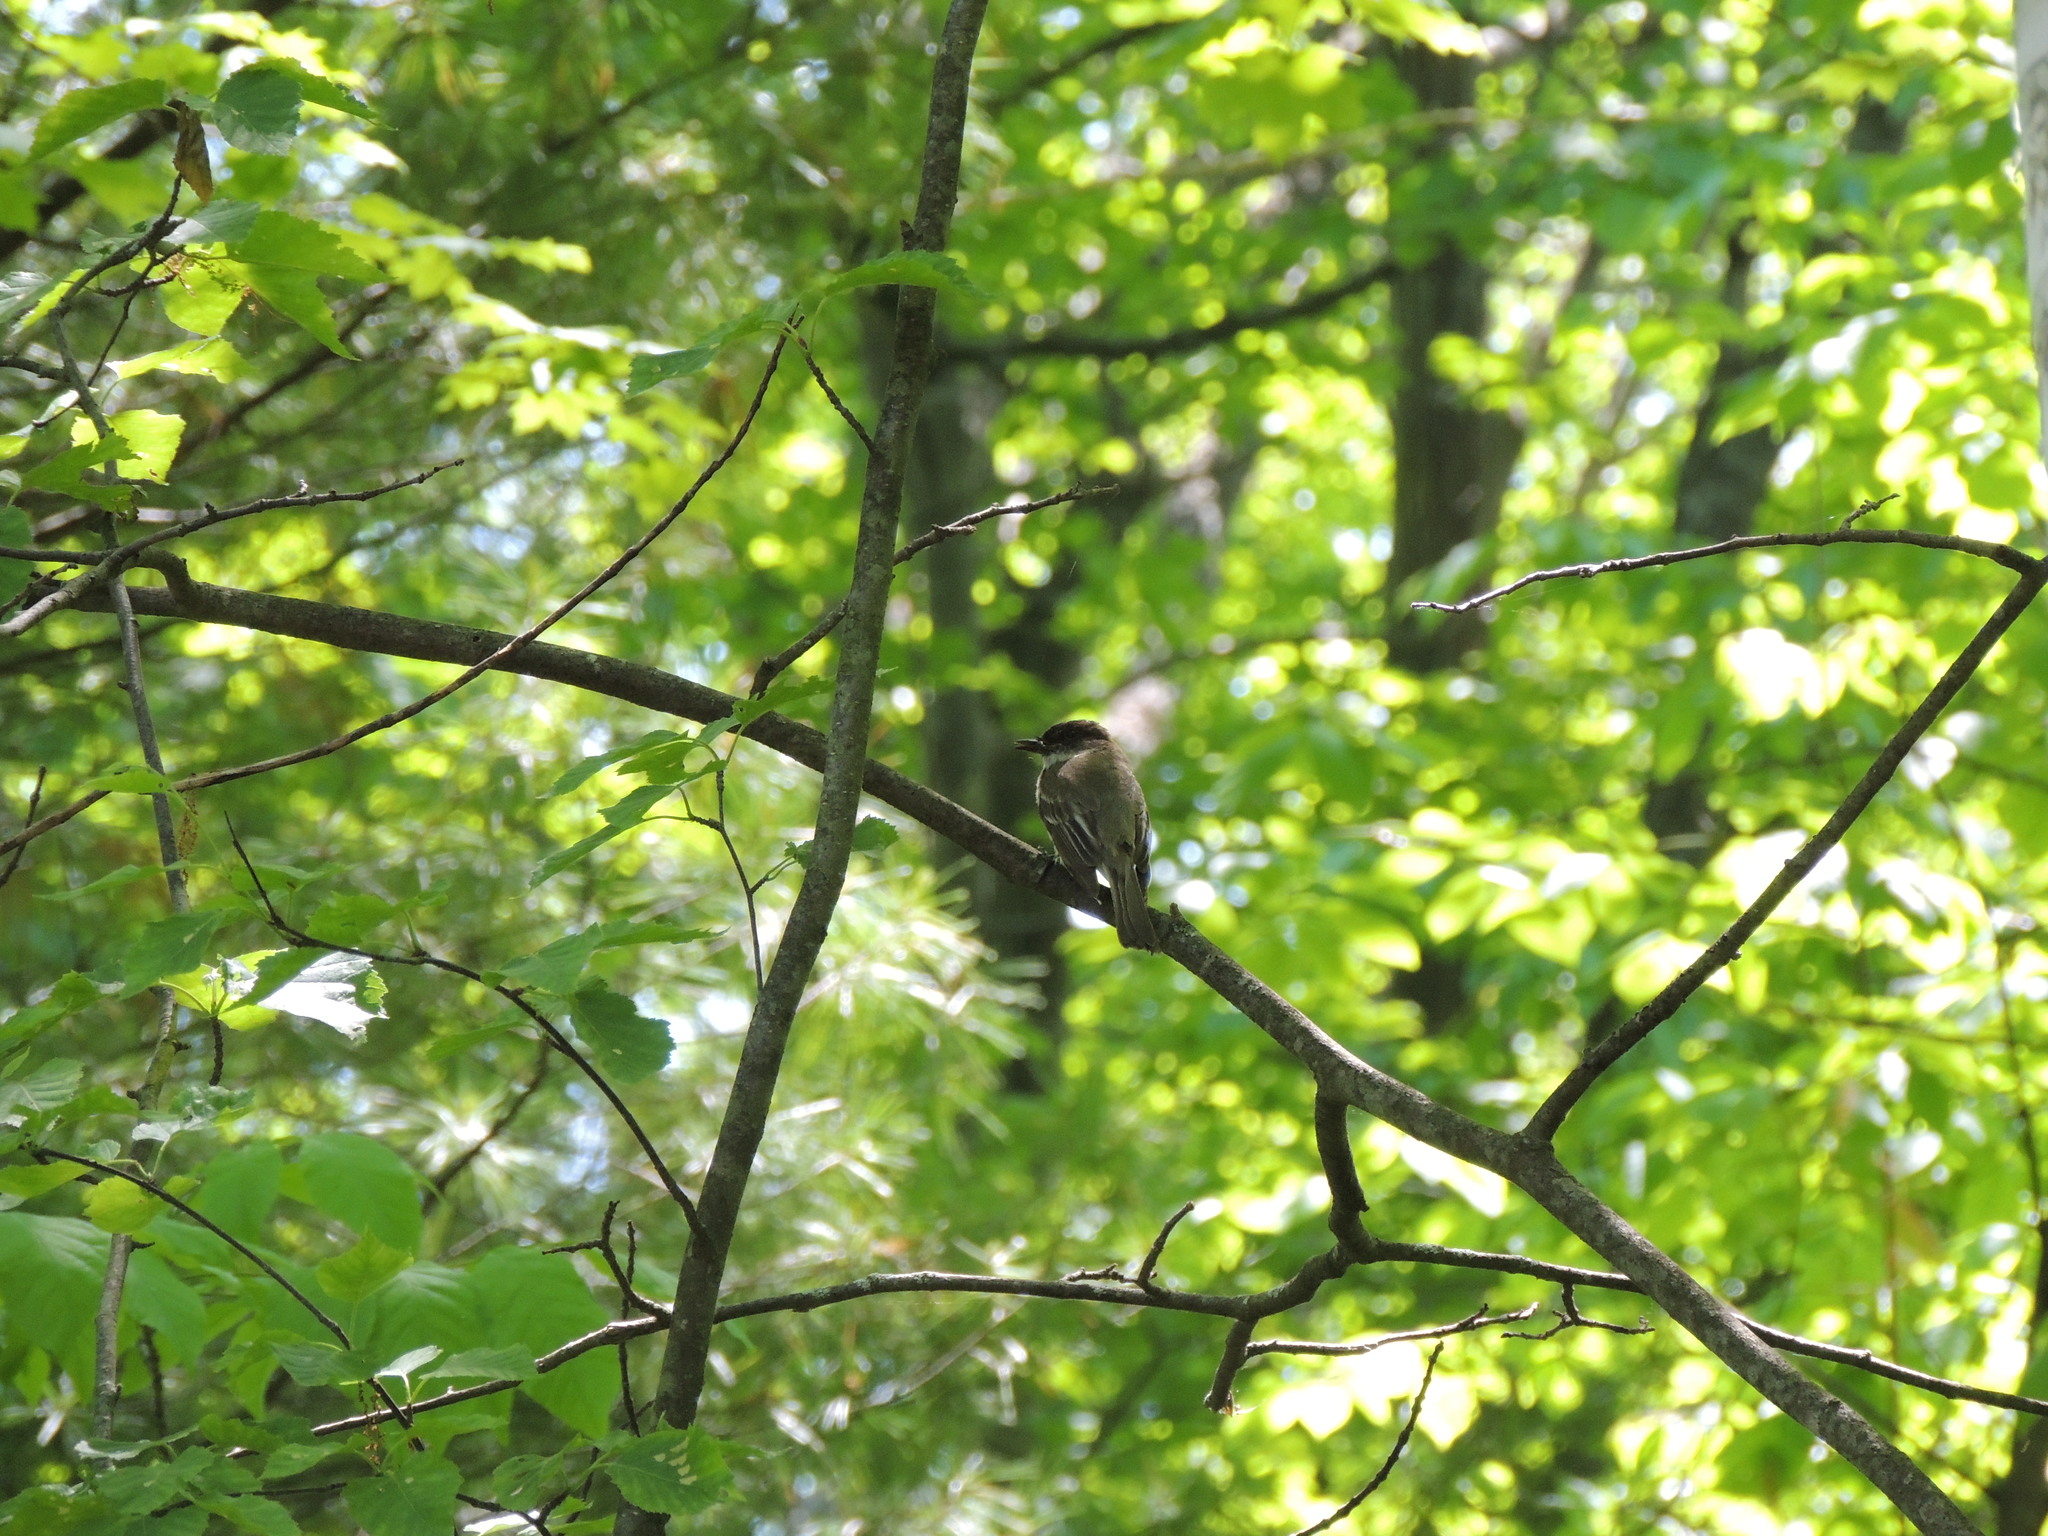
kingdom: Animalia
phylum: Chordata
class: Aves
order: Passeriformes
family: Tyrannidae
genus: Sayornis
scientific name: Sayornis phoebe
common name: Eastern phoebe
